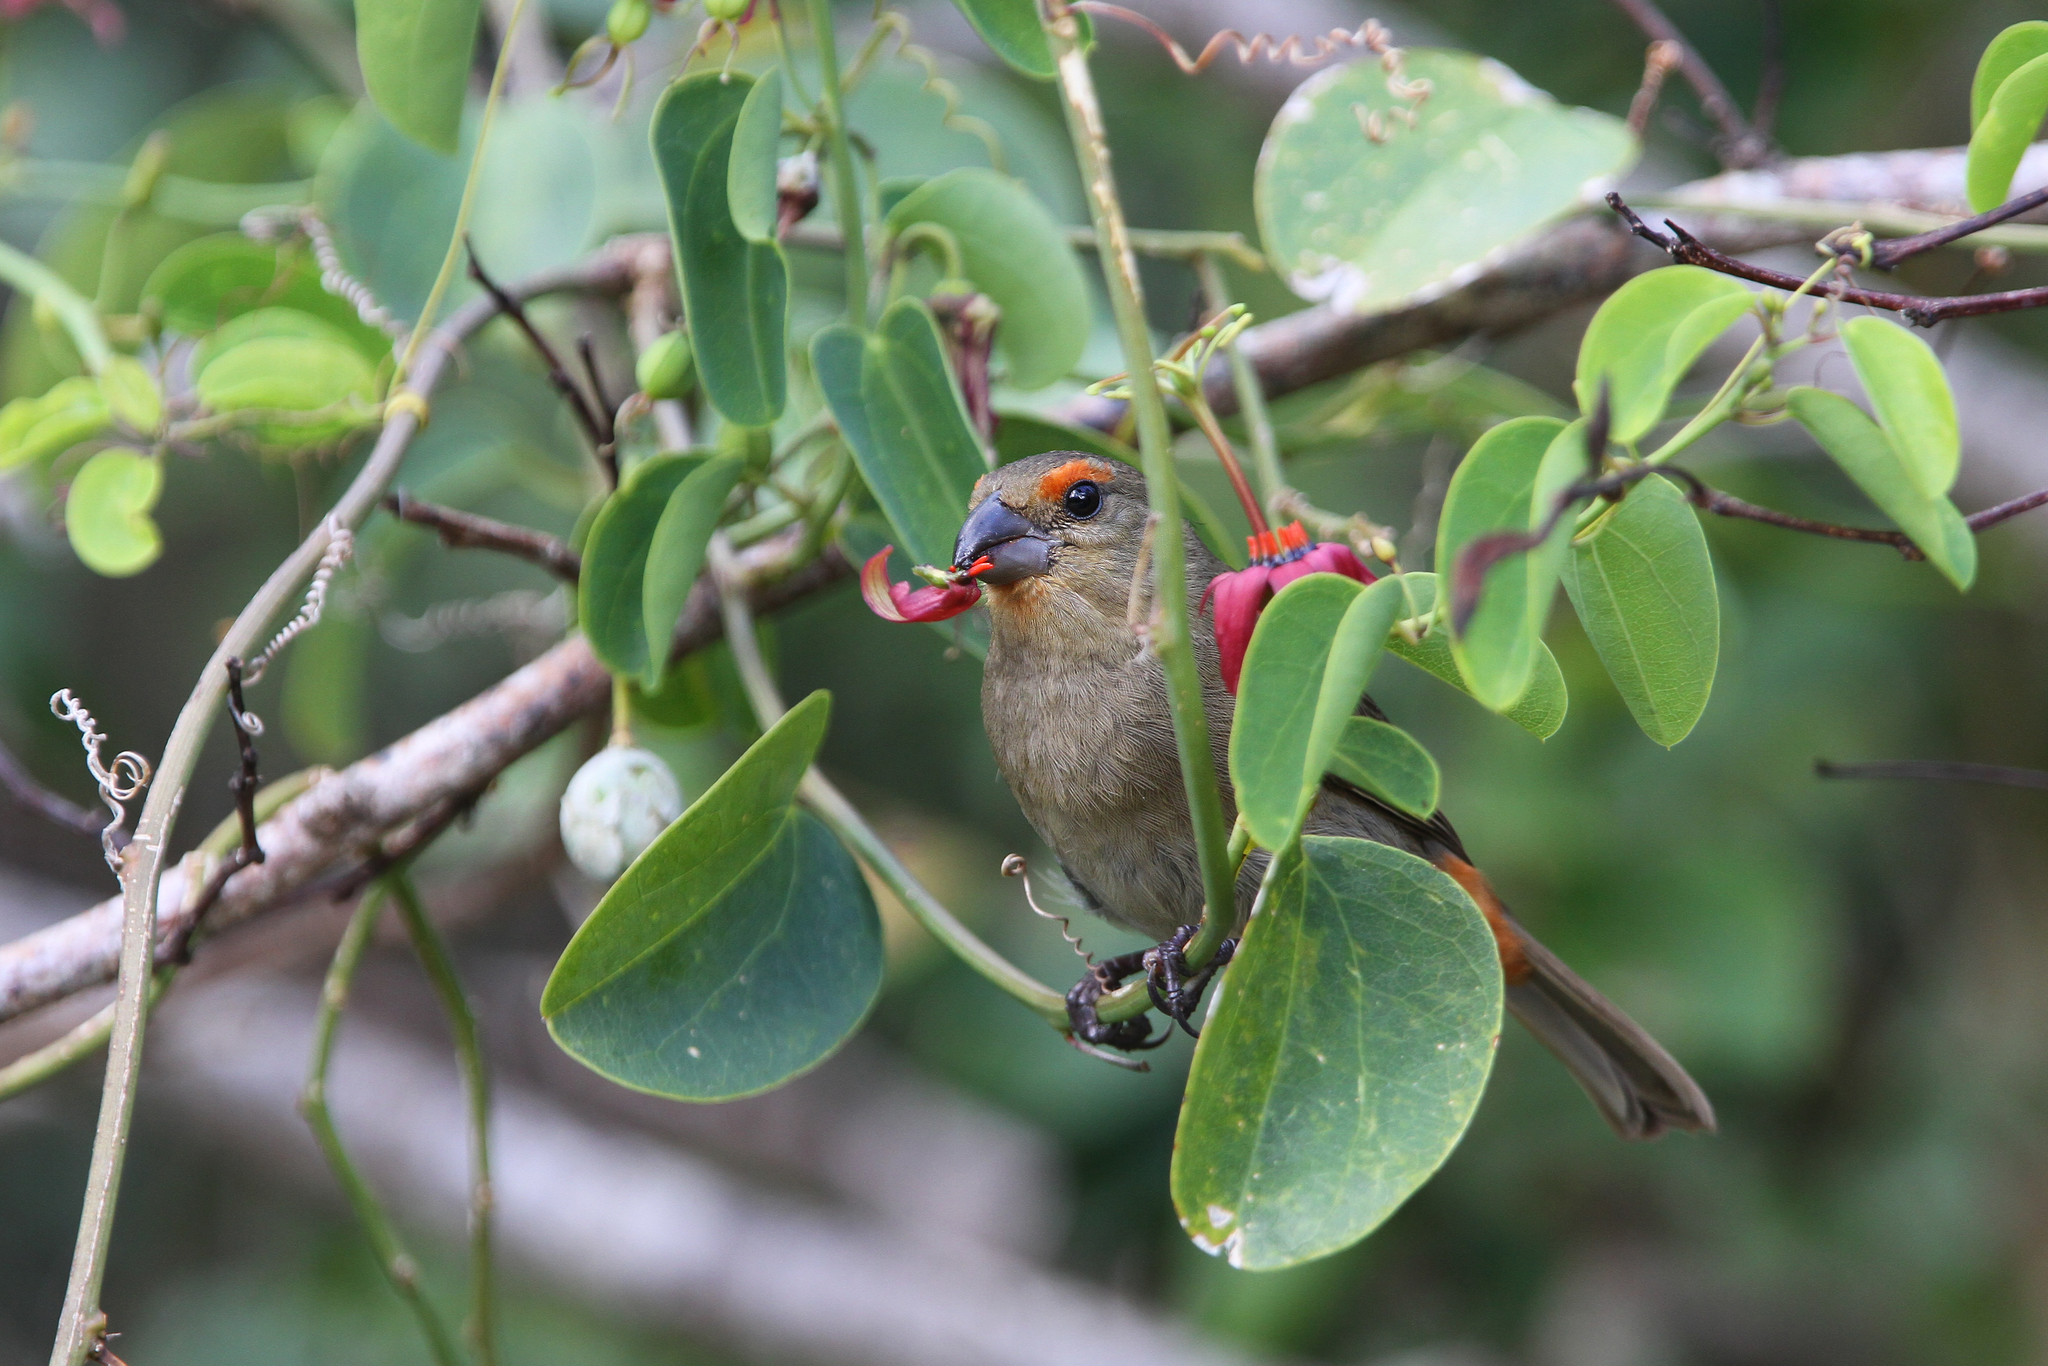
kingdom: Animalia
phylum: Chordata
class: Aves
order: Passeriformes
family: Thraupidae
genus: Melopyrrha
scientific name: Melopyrrha violacea
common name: Greater antillean bullfinch
